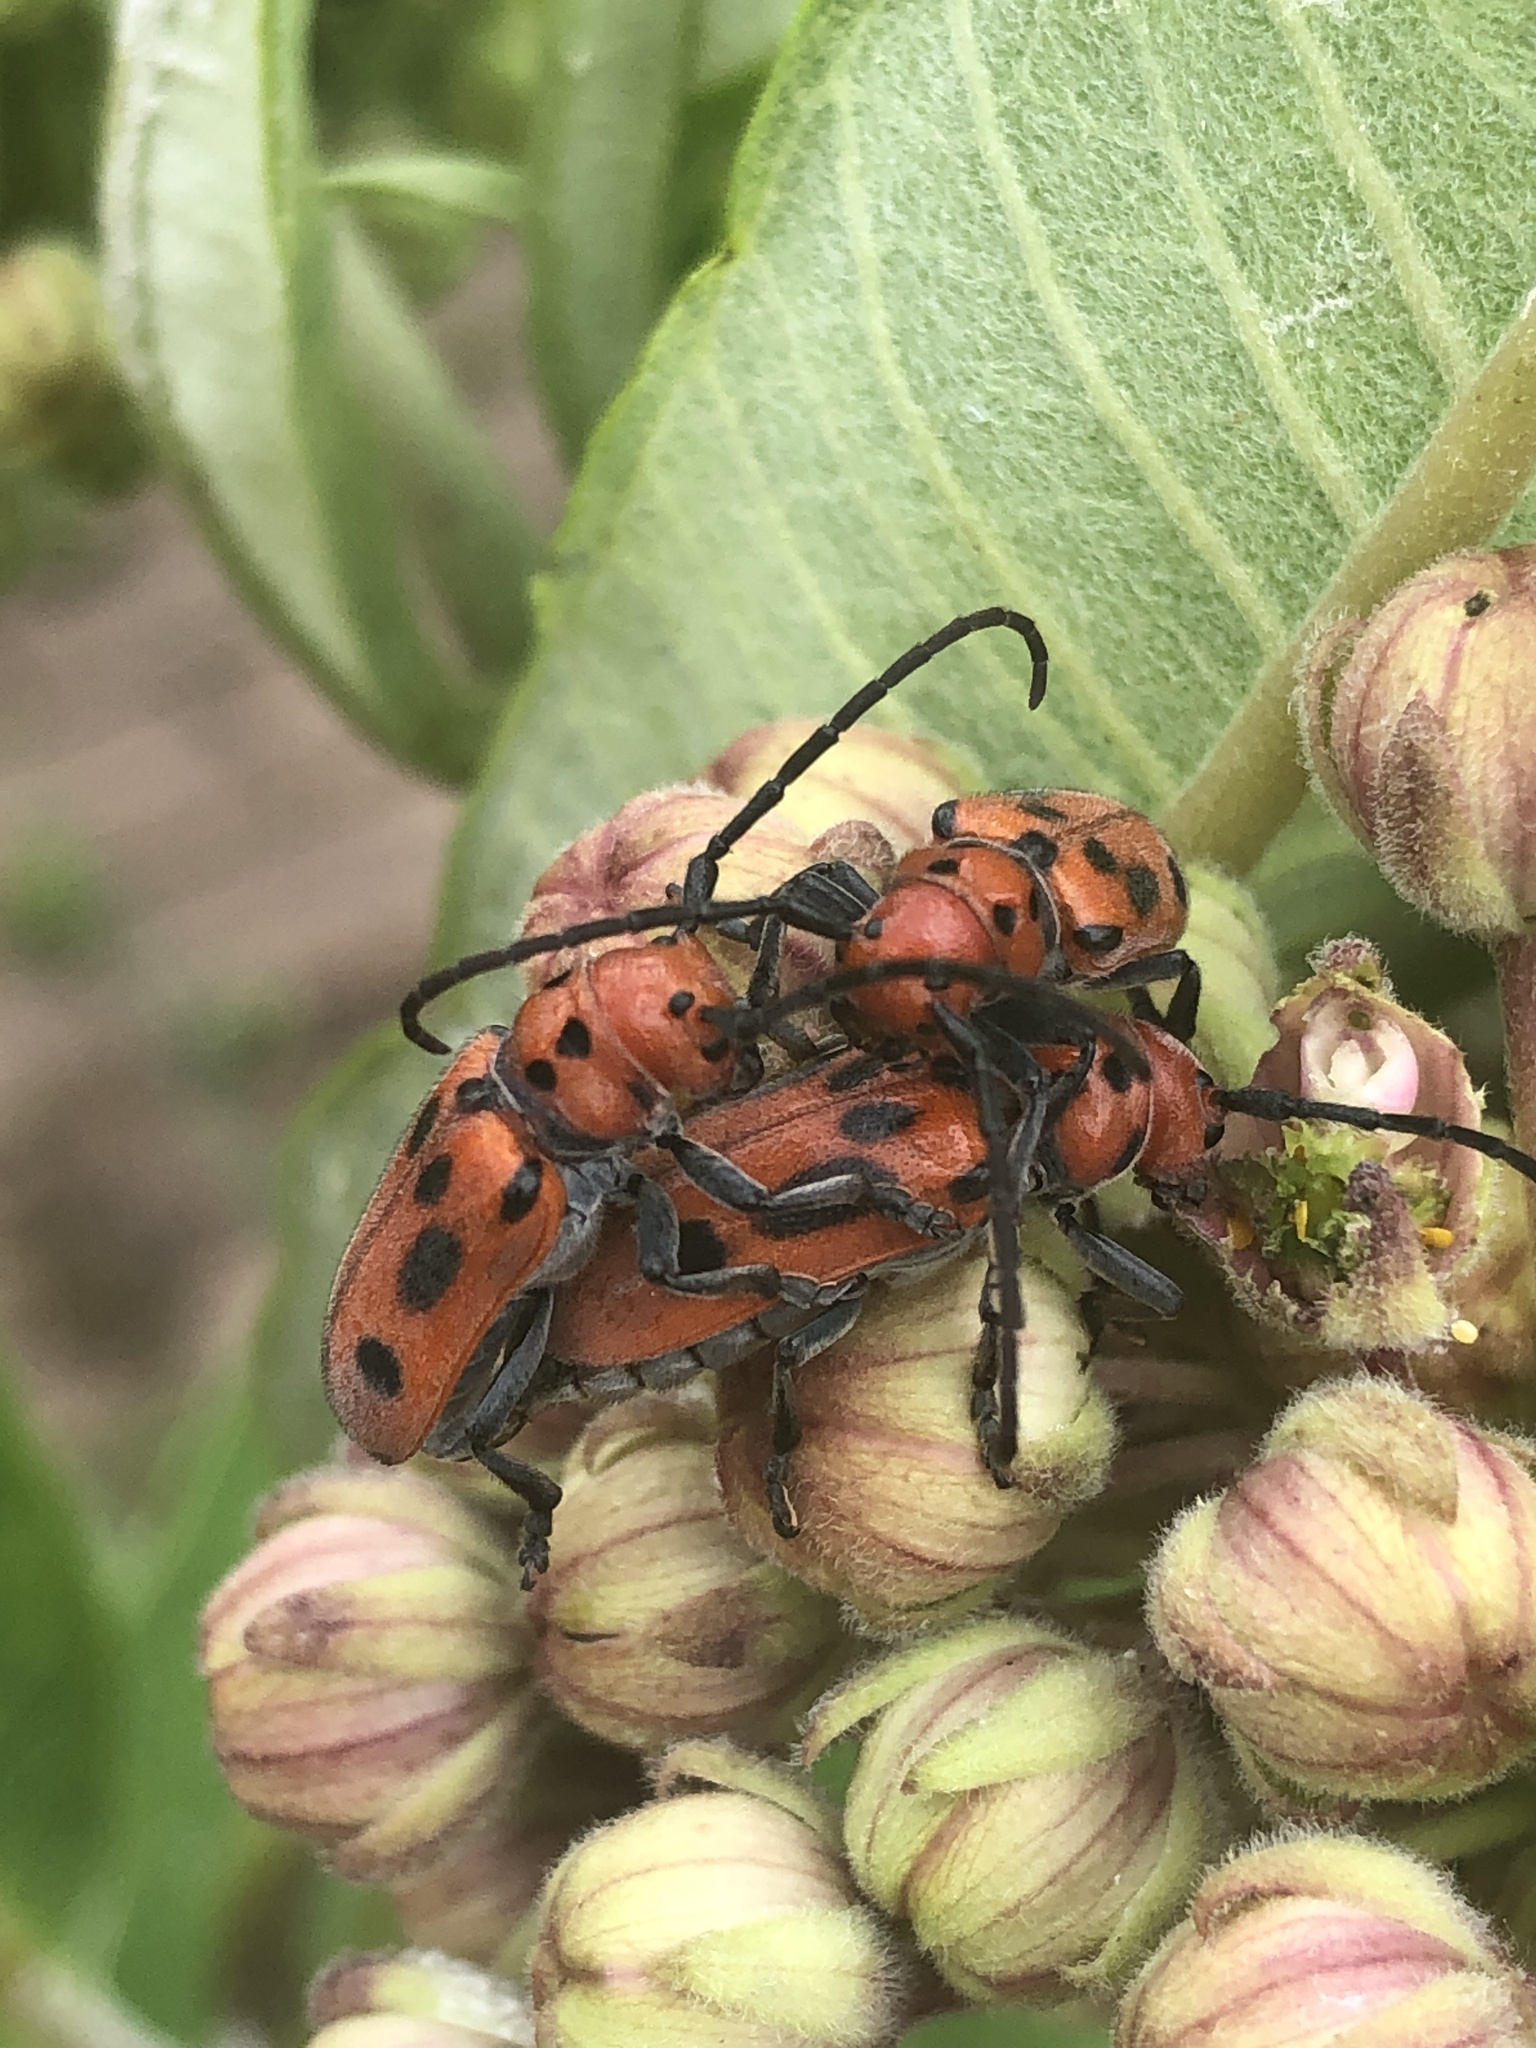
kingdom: Animalia
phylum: Arthropoda
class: Insecta
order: Coleoptera
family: Cerambycidae
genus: Tetraopes
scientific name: Tetraopes tetrophthalmus
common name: Red milkweed beetle
